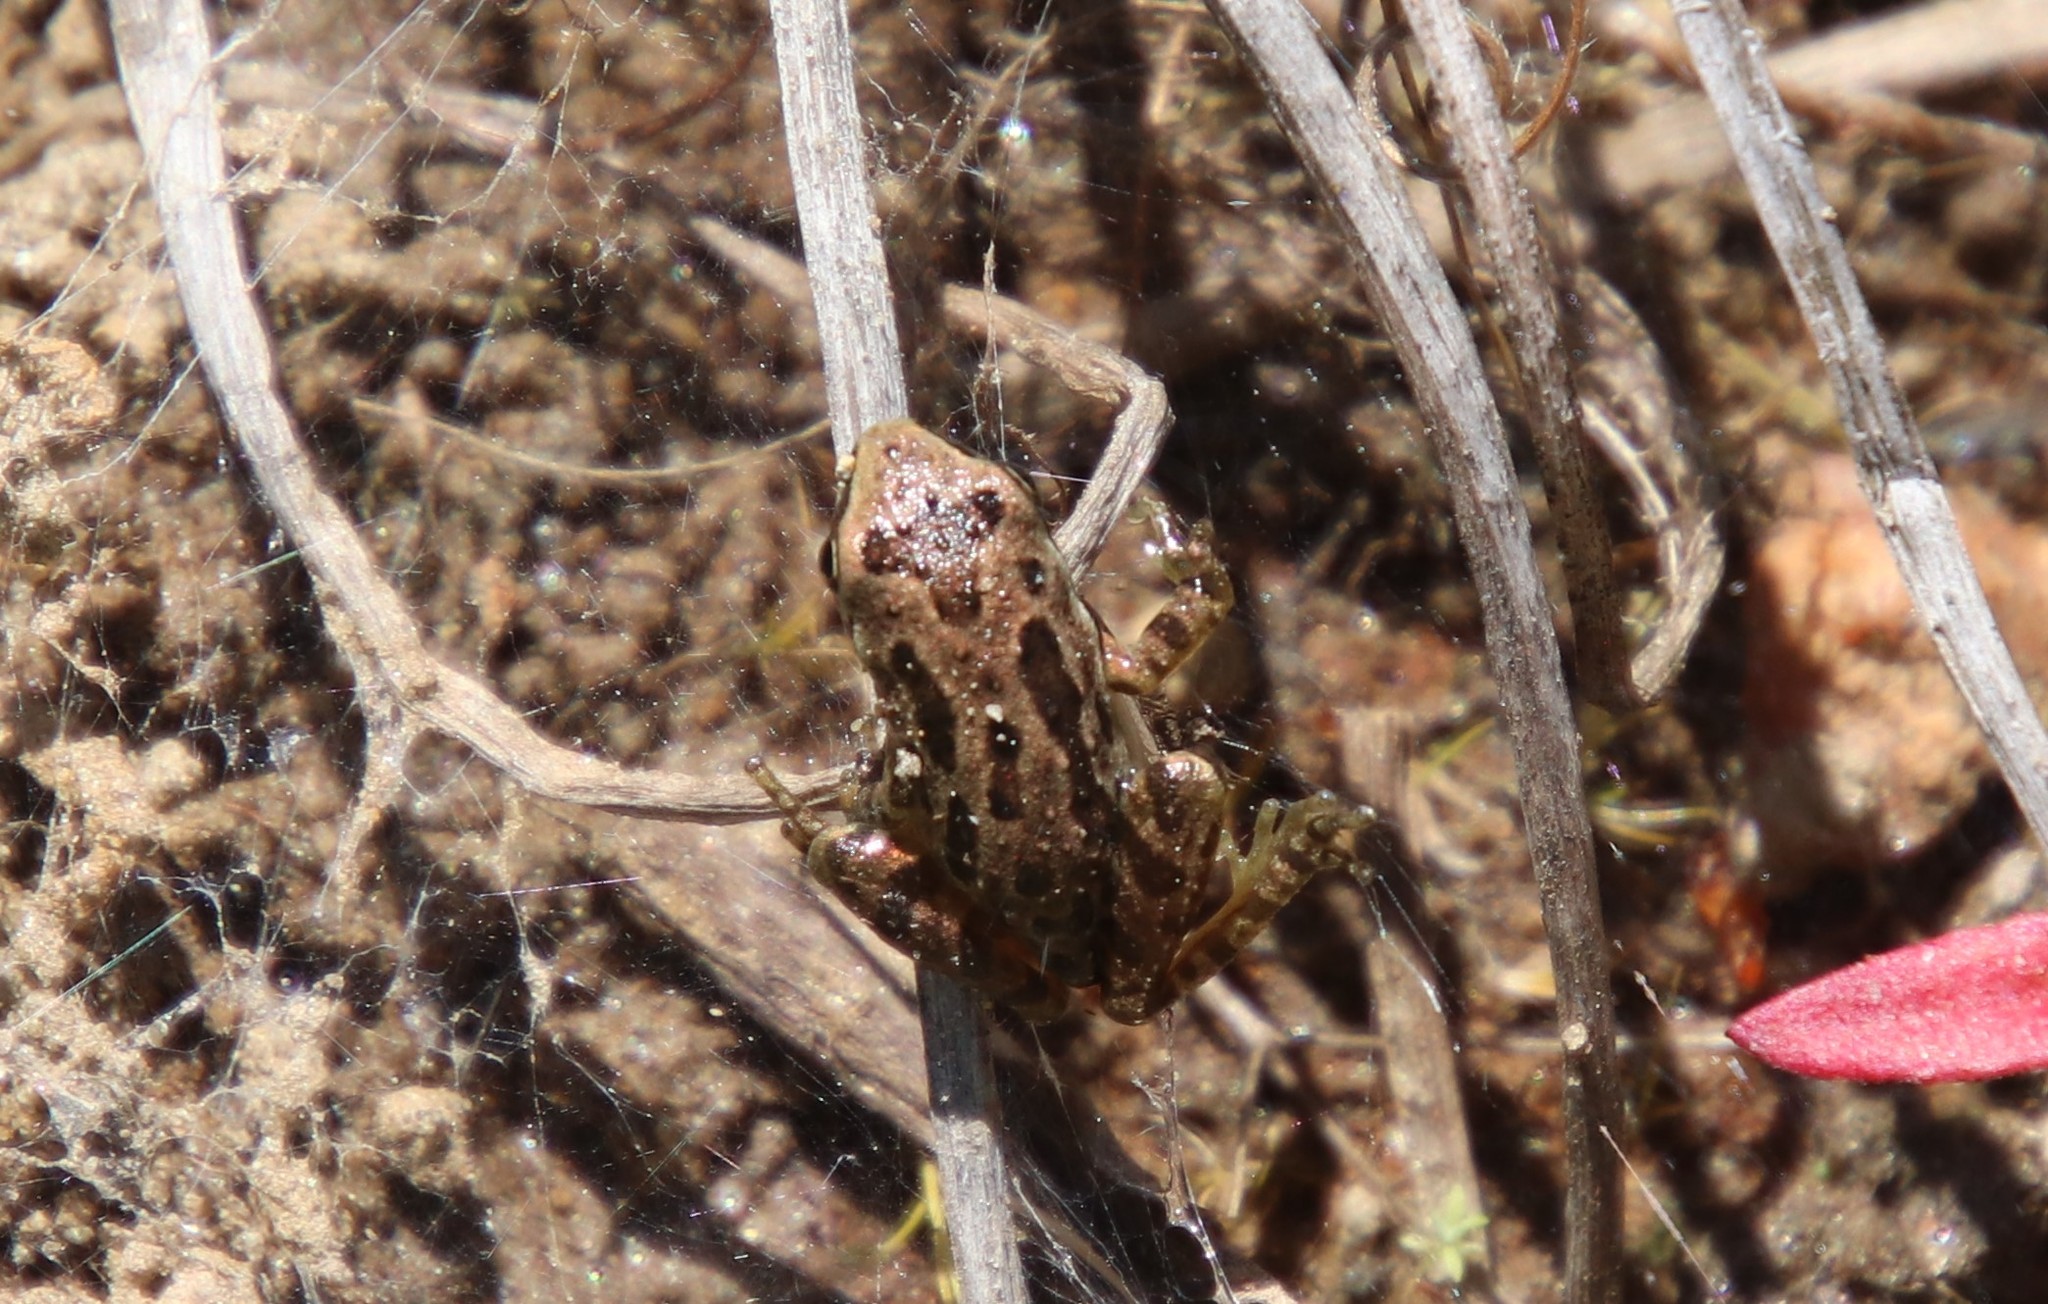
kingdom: Animalia
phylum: Chordata
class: Amphibia
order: Anura
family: Hylidae
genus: Pseudacris
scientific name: Pseudacris regilla
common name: Pacific chorus frog
